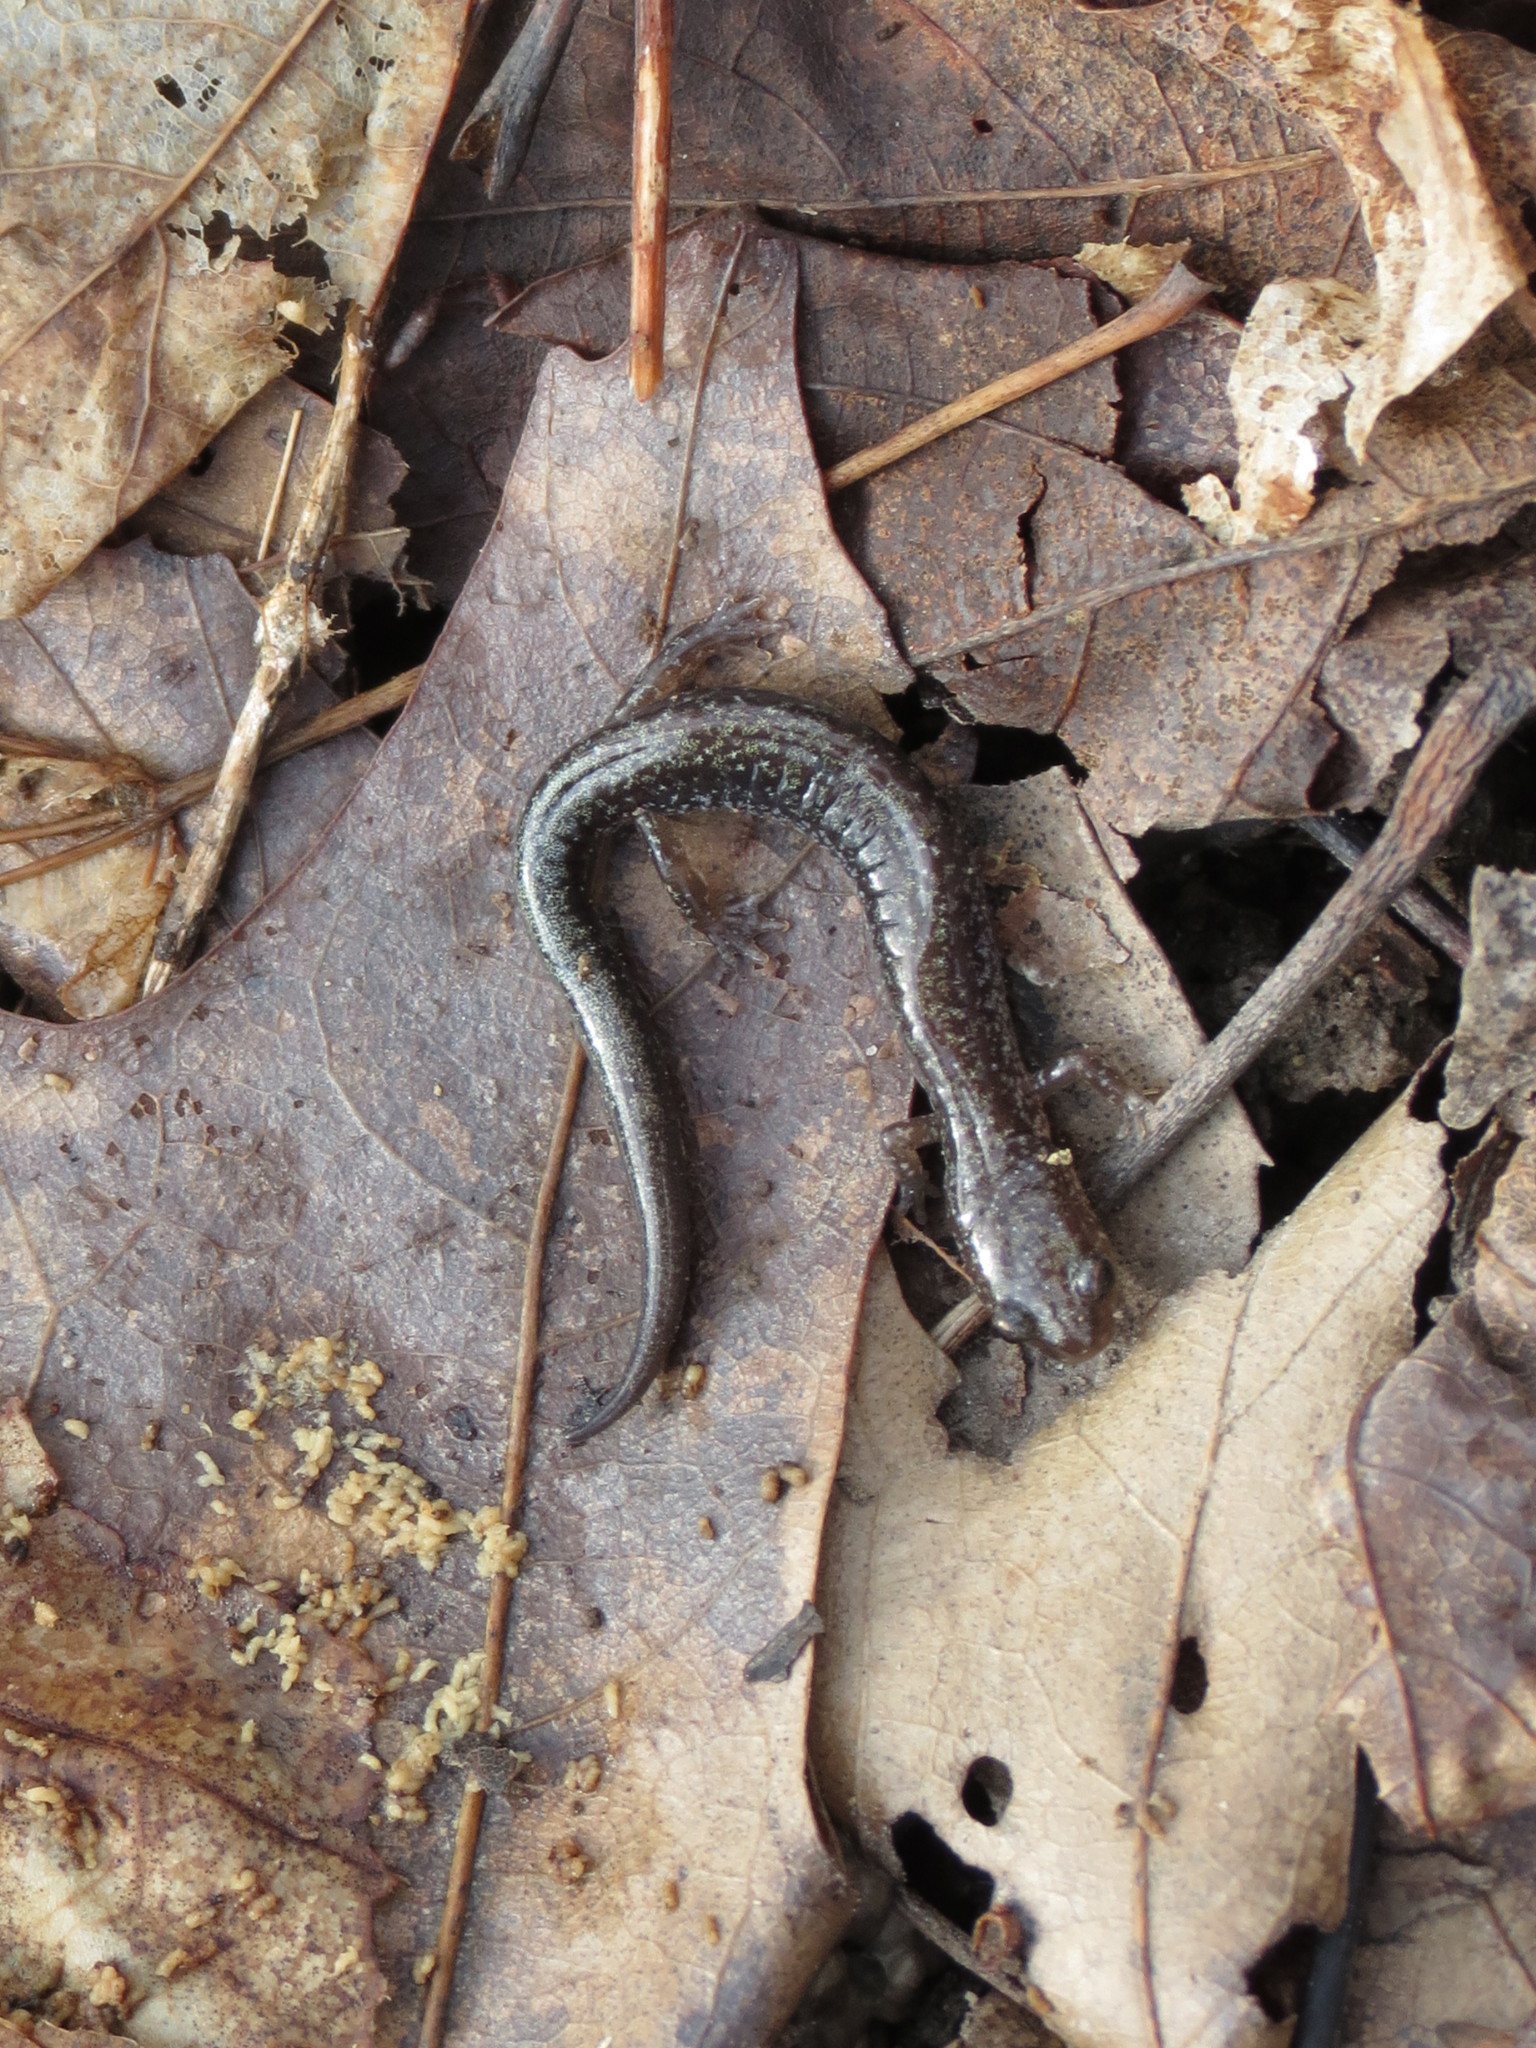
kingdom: Animalia
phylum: Chordata
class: Amphibia
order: Caudata
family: Plethodontidae
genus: Plethodon
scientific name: Plethodon cinereus
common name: Redback salamander
